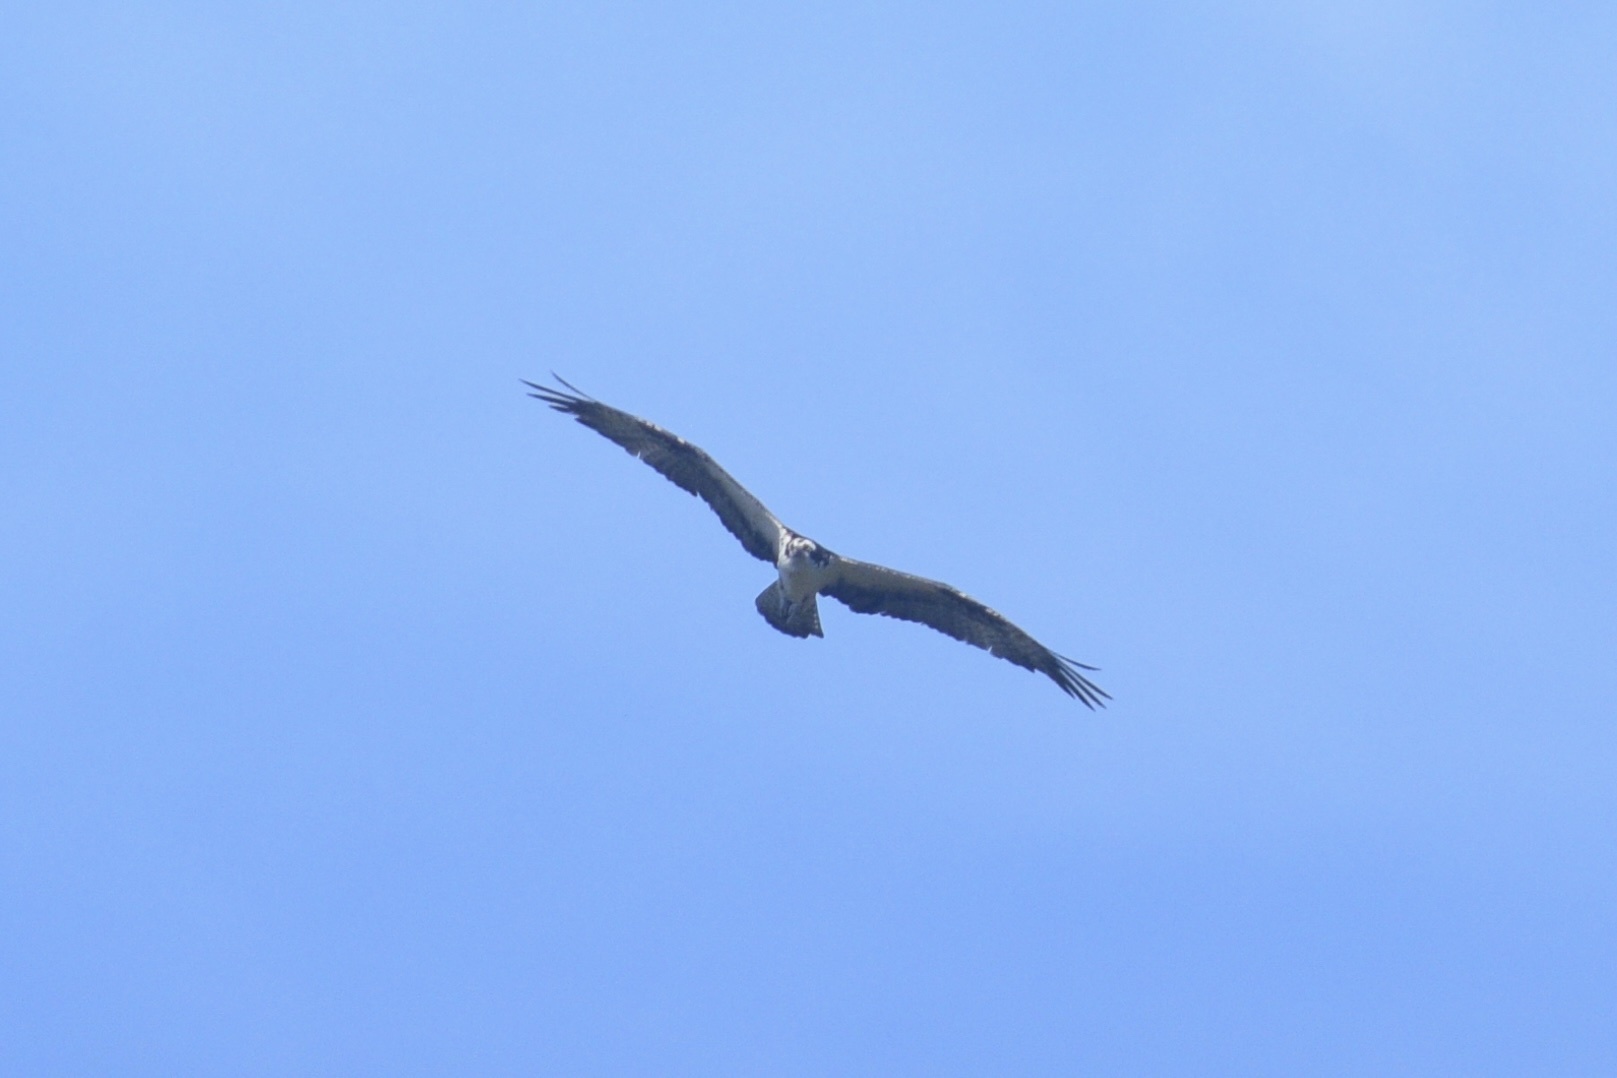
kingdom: Animalia
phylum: Chordata
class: Aves
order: Accipitriformes
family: Pandionidae
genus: Pandion
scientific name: Pandion haliaetus
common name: Osprey
